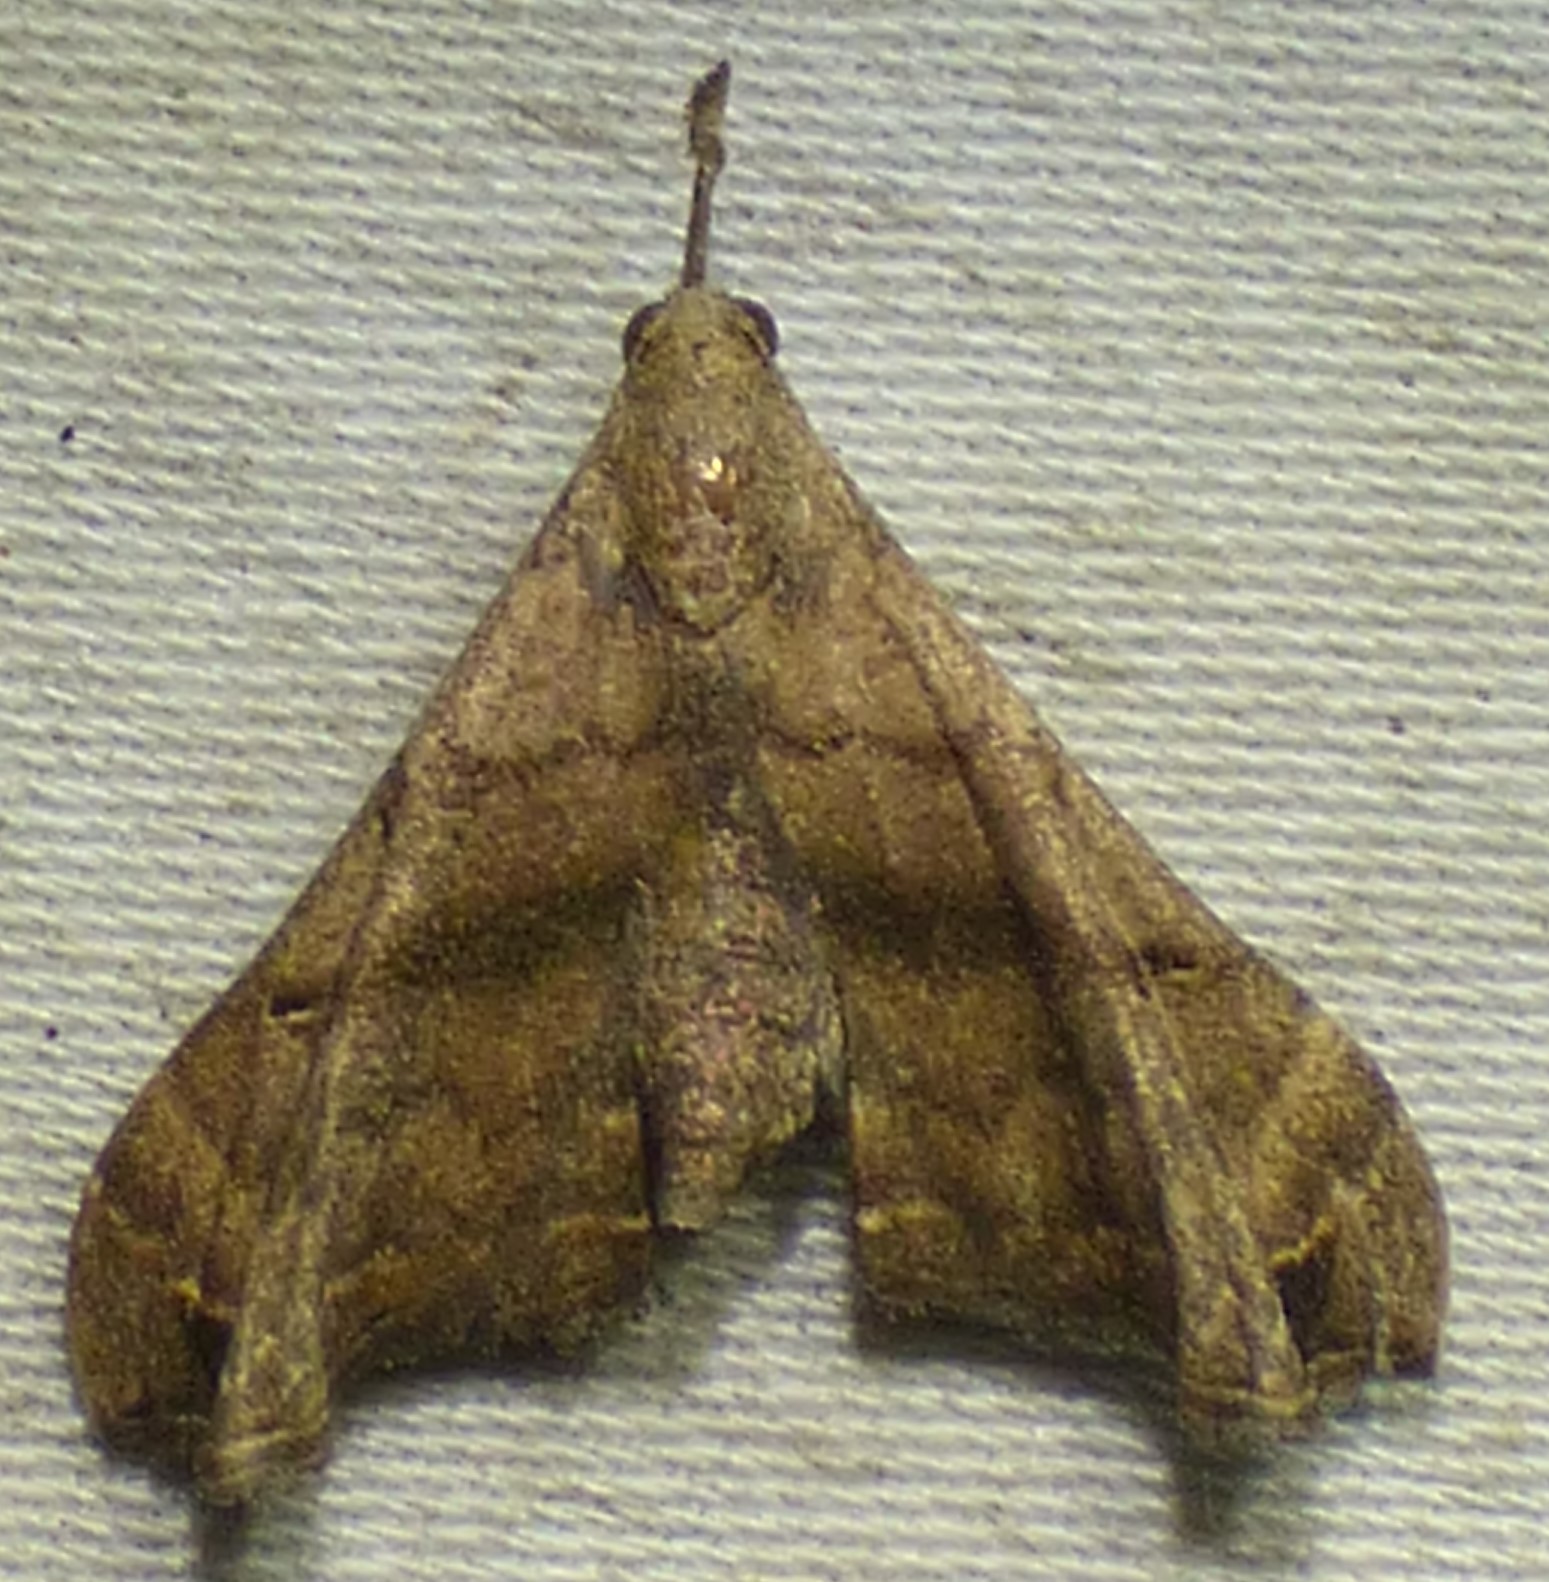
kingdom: Animalia
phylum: Arthropoda
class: Insecta
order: Lepidoptera
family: Erebidae
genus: Palthis
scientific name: Palthis asopialis
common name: Faint-spotted palthis moth
